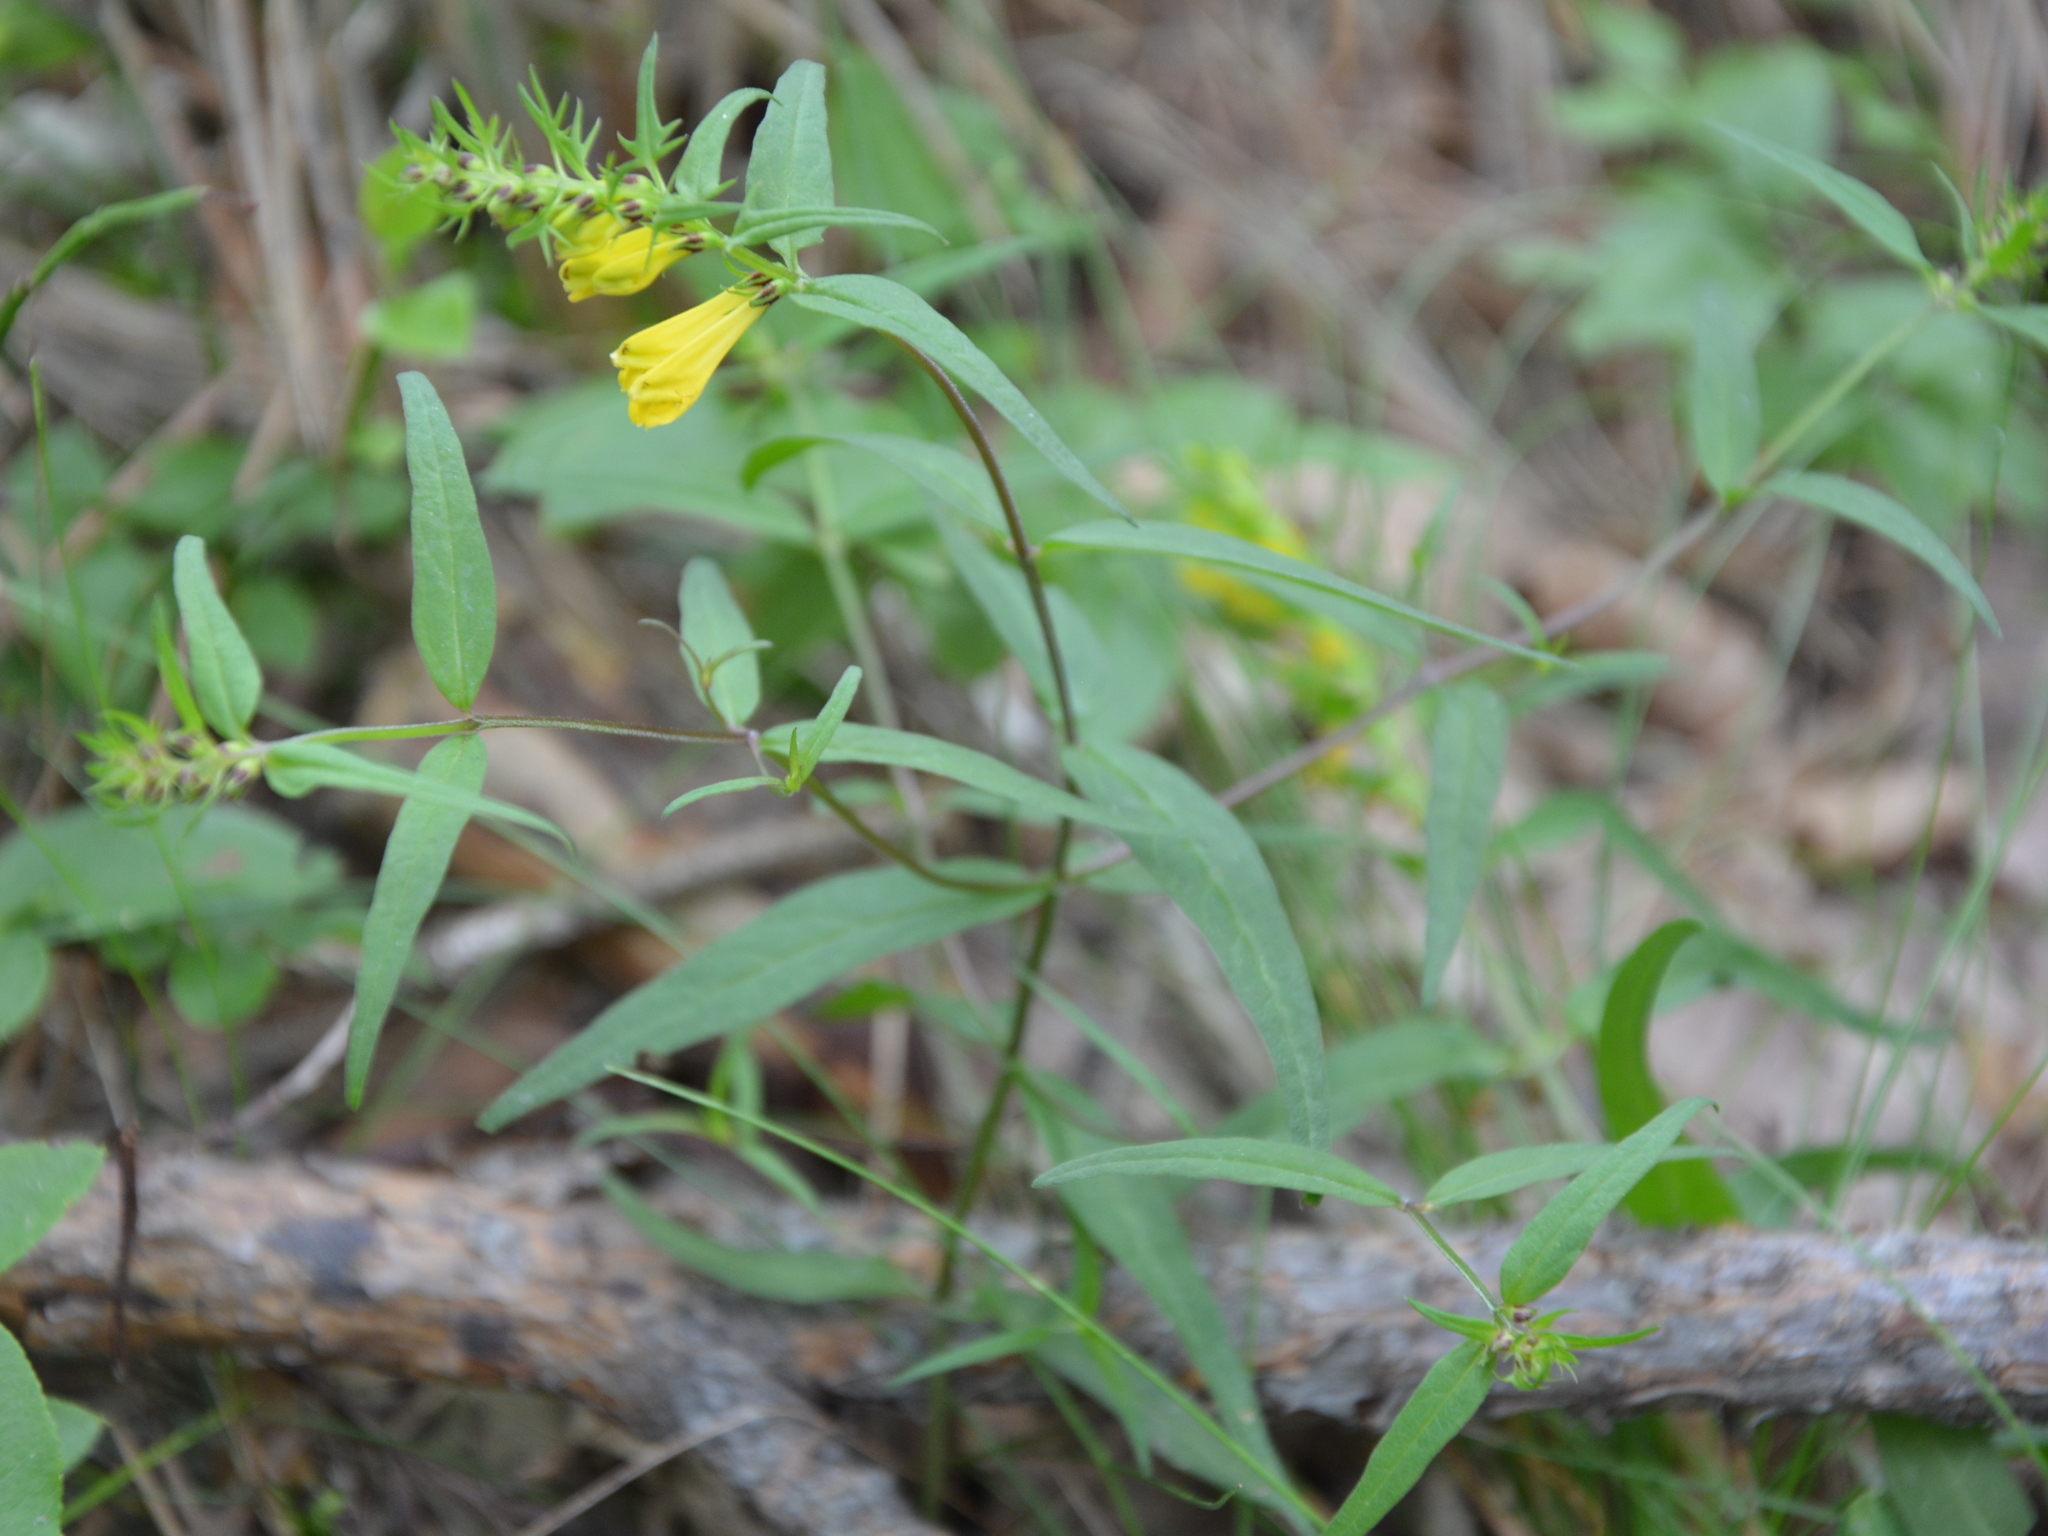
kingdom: Plantae
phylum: Tracheophyta
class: Magnoliopsida
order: Lamiales
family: Orobanchaceae
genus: Melampyrum
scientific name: Melampyrum pratense
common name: Common cow-wheat
